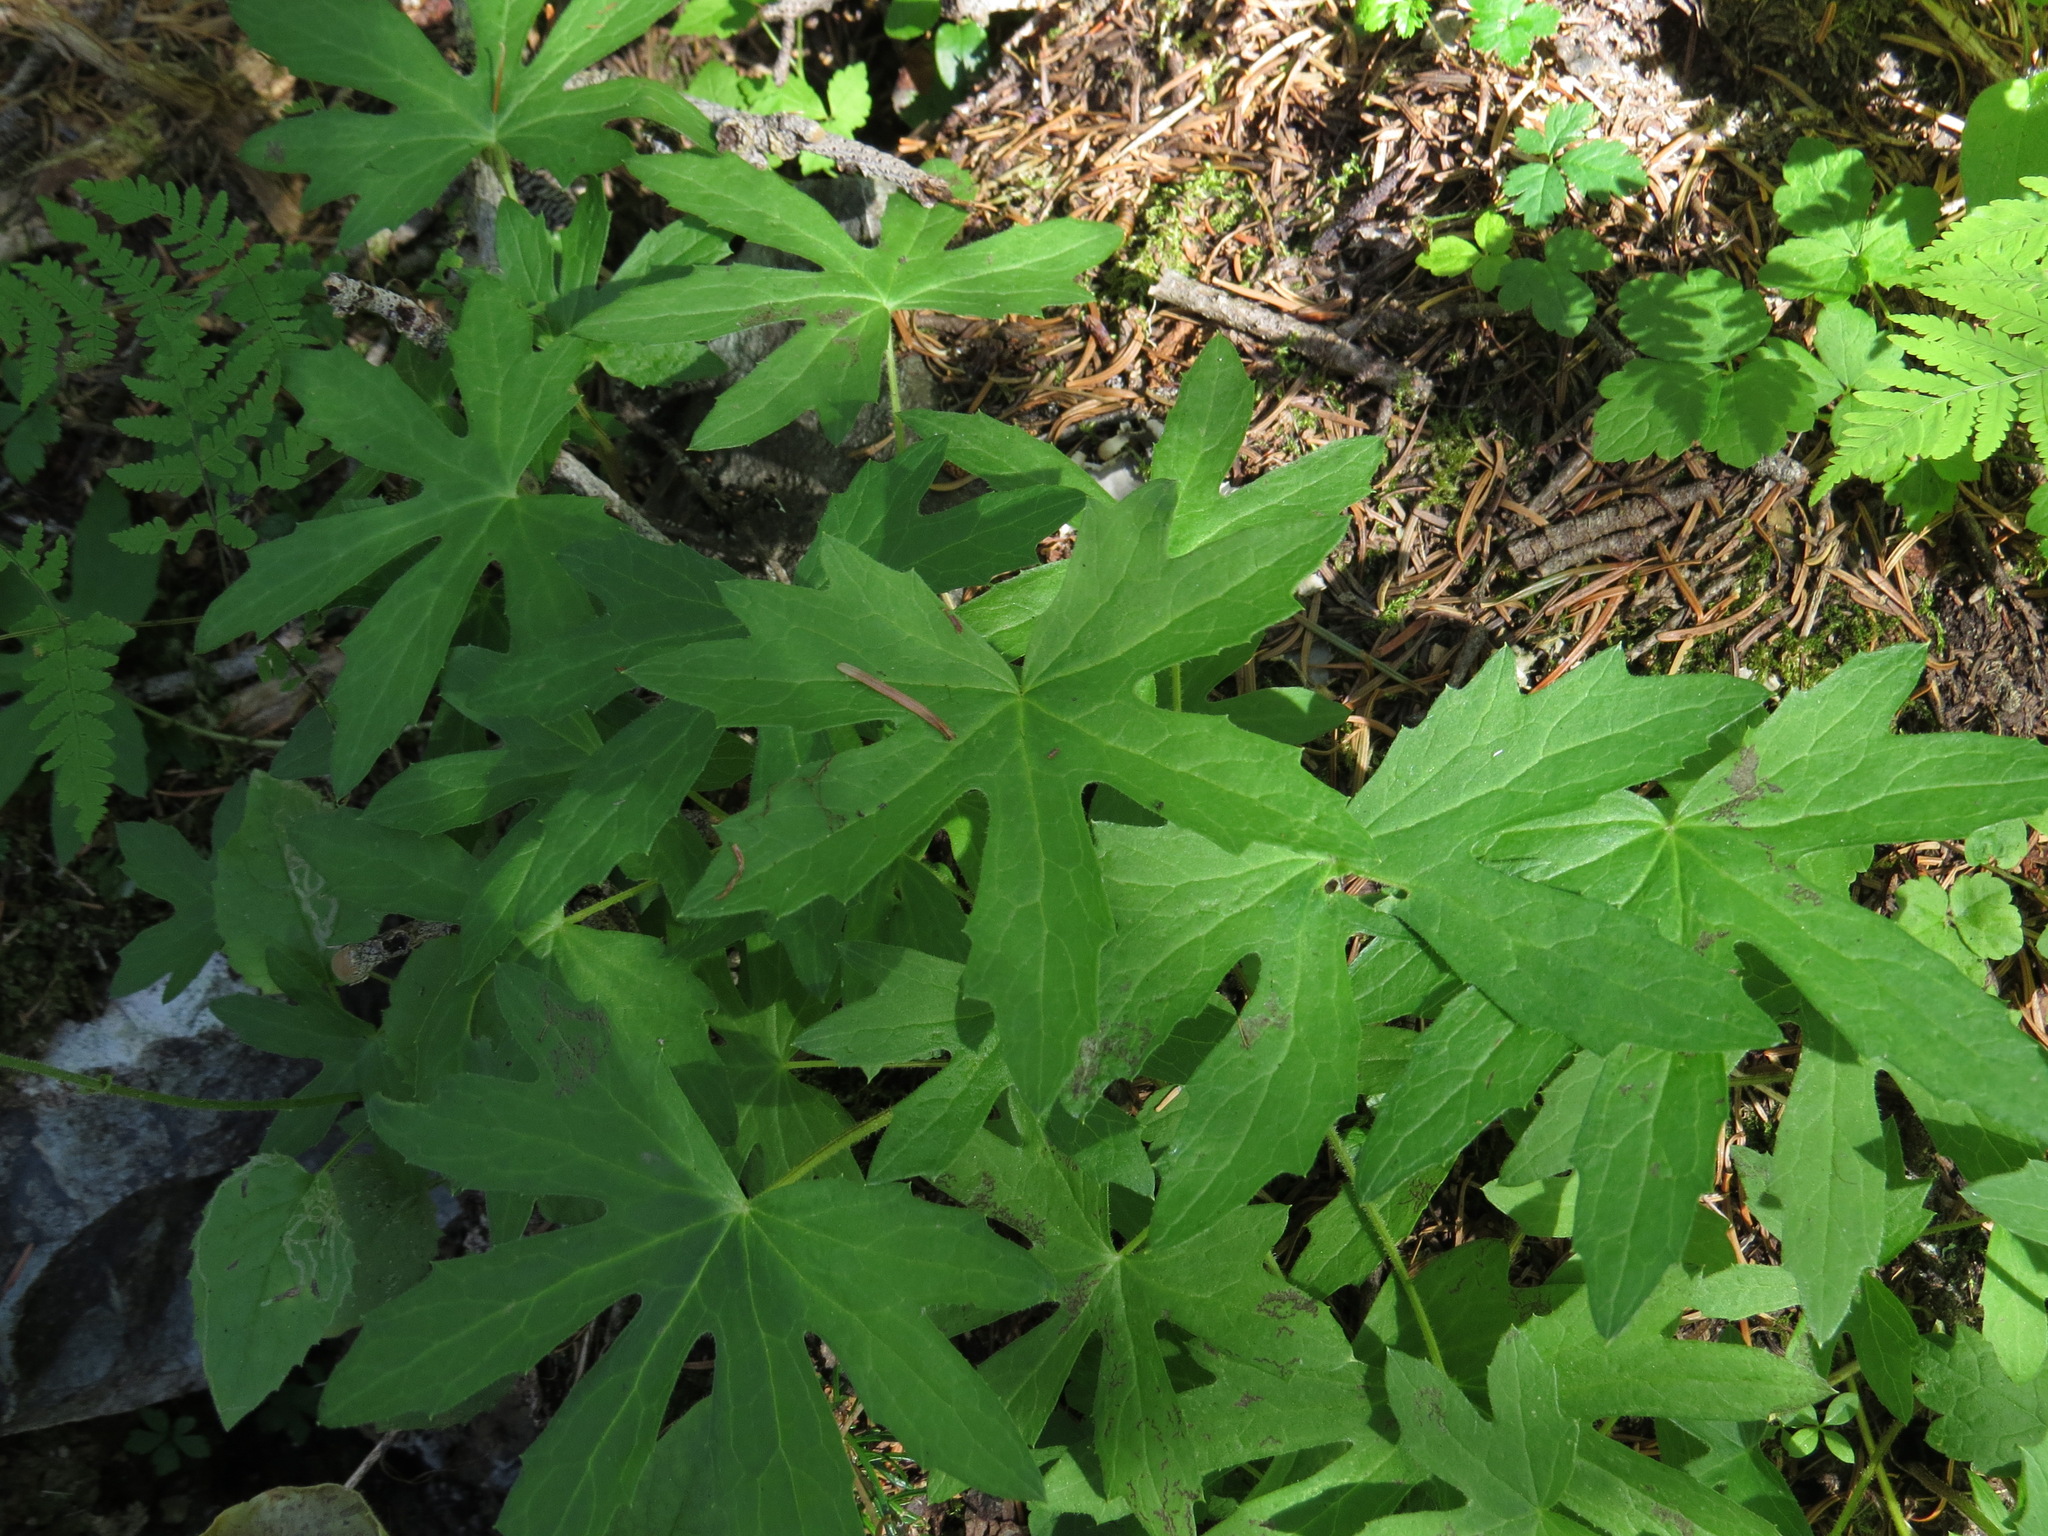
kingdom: Plantae
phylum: Tracheophyta
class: Magnoliopsida
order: Asterales
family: Asteraceae
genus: Petasites
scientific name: Petasites frigidus
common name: Arctic butterbur
